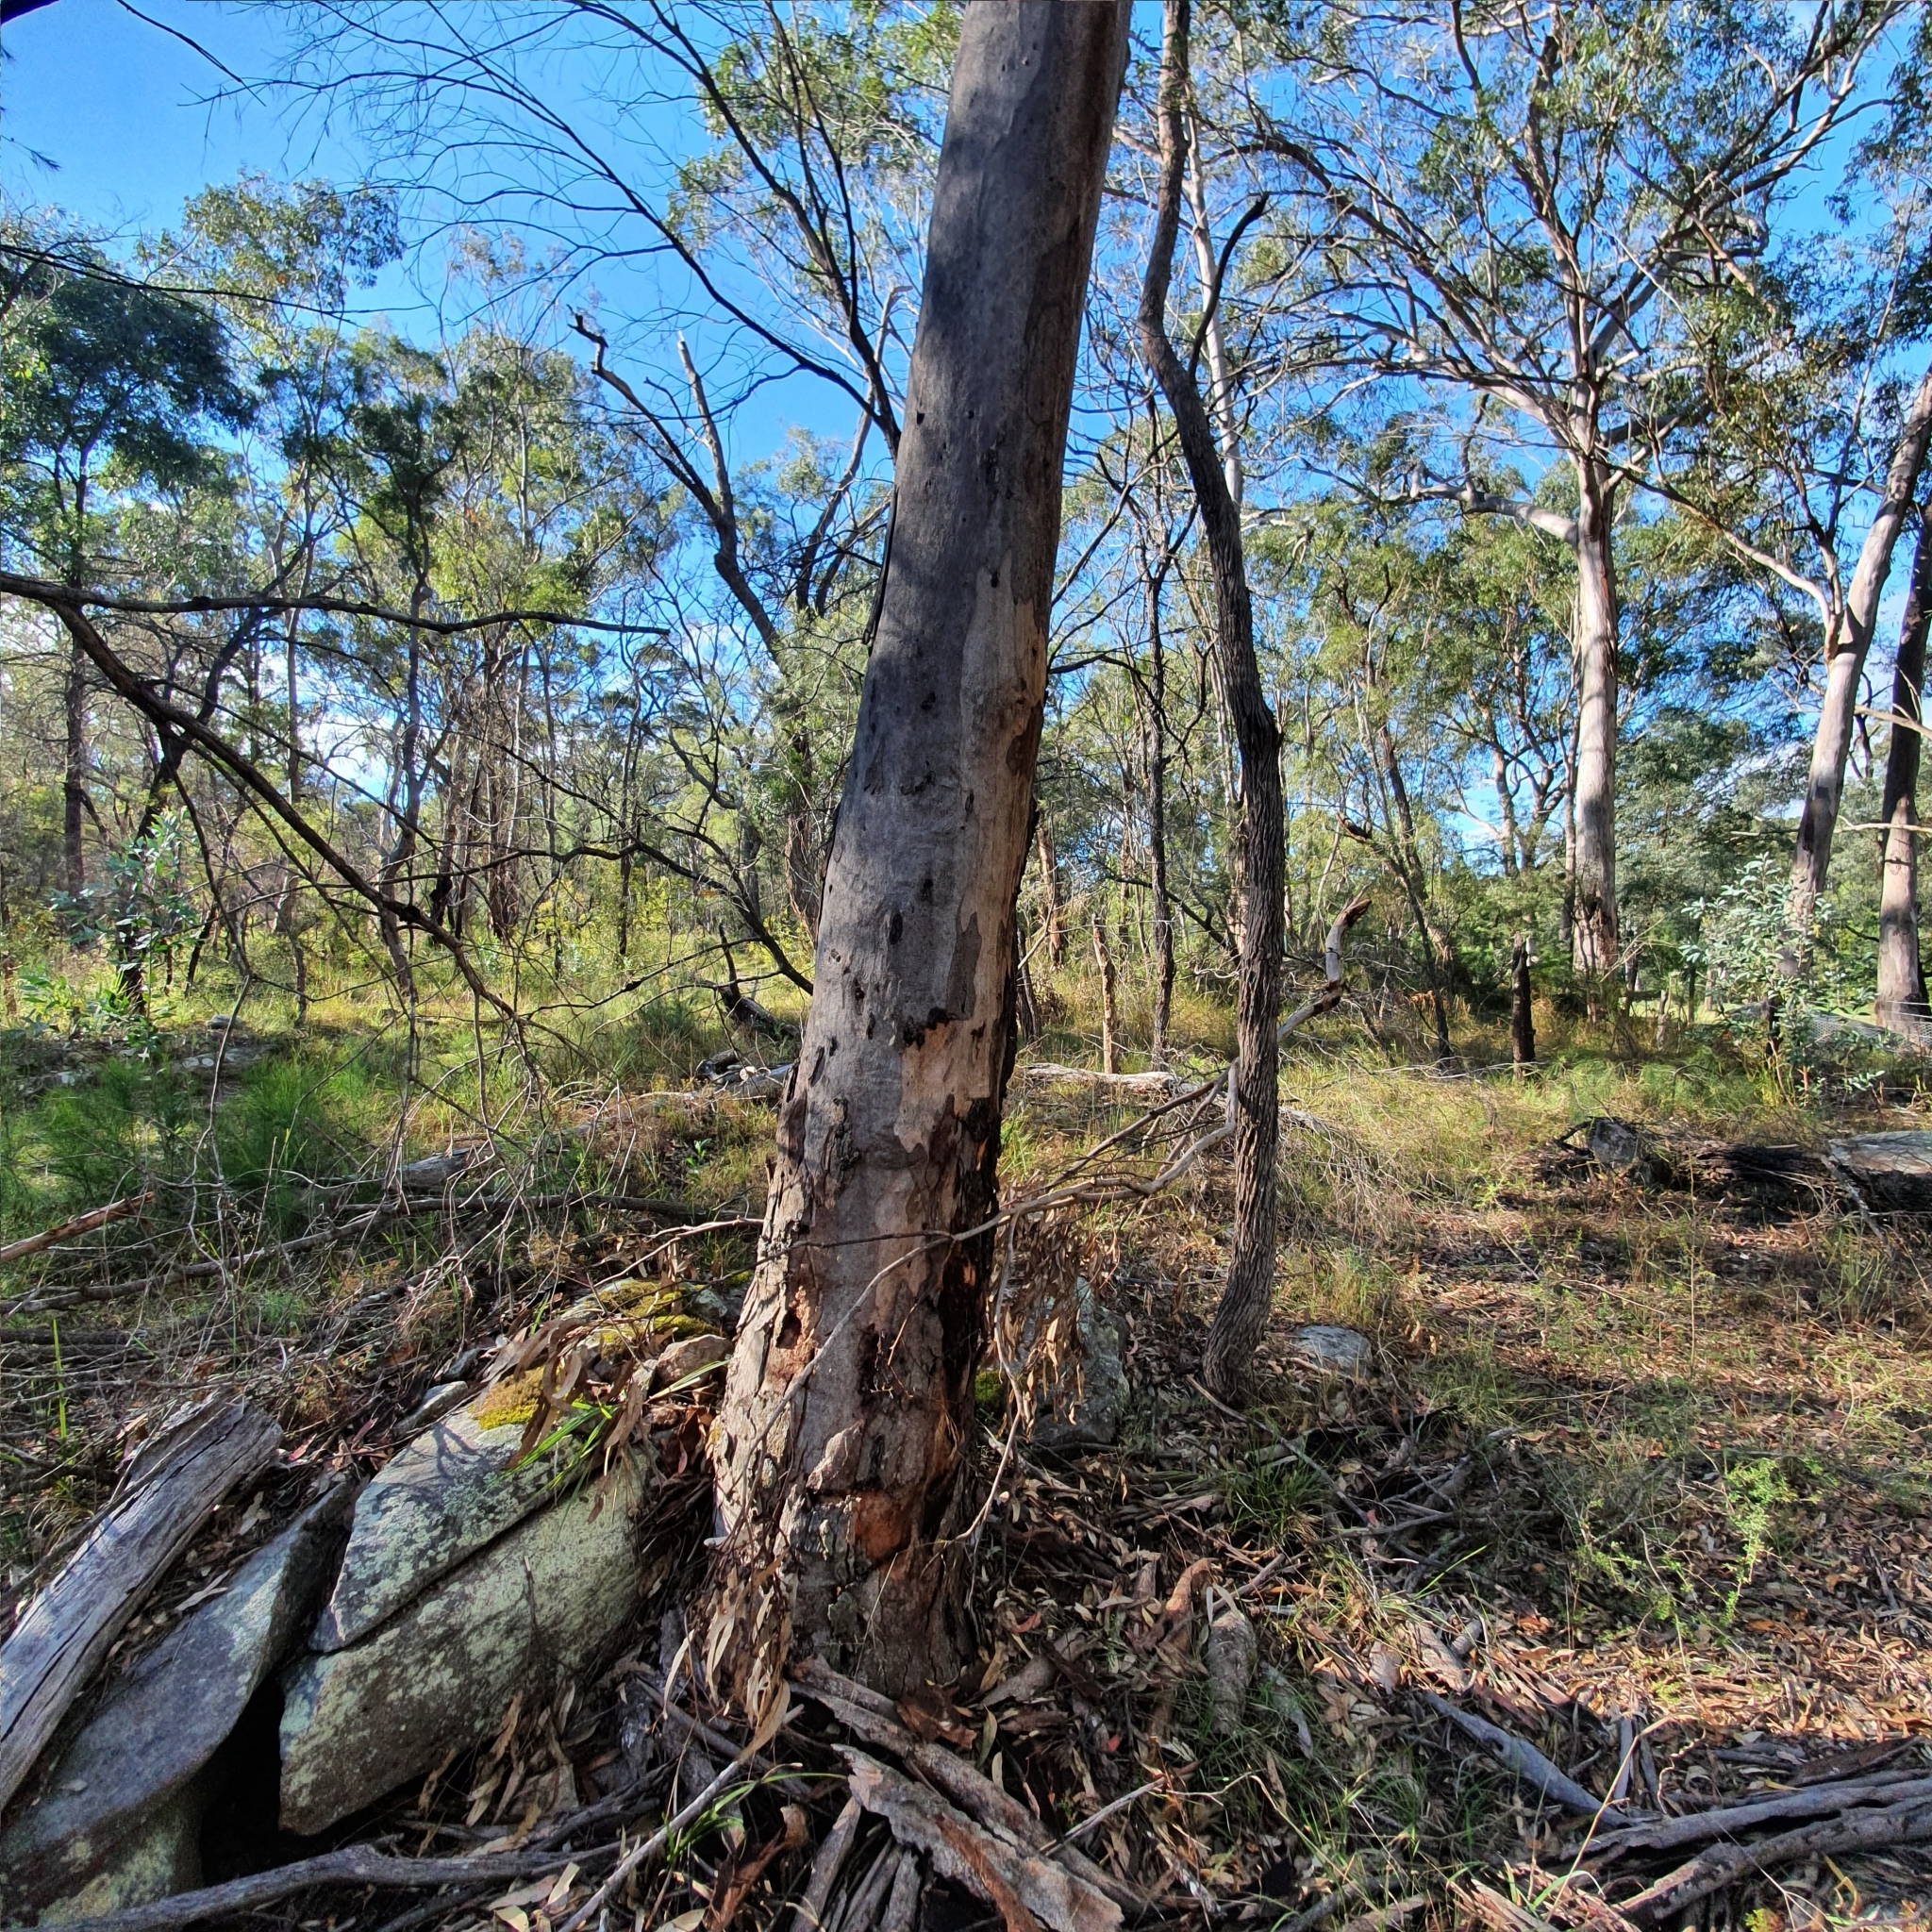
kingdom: Plantae
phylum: Tracheophyta
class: Magnoliopsida
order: Myrtales
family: Myrtaceae
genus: Eucalyptus
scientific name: Eucalyptus punctata
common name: Gray gum
